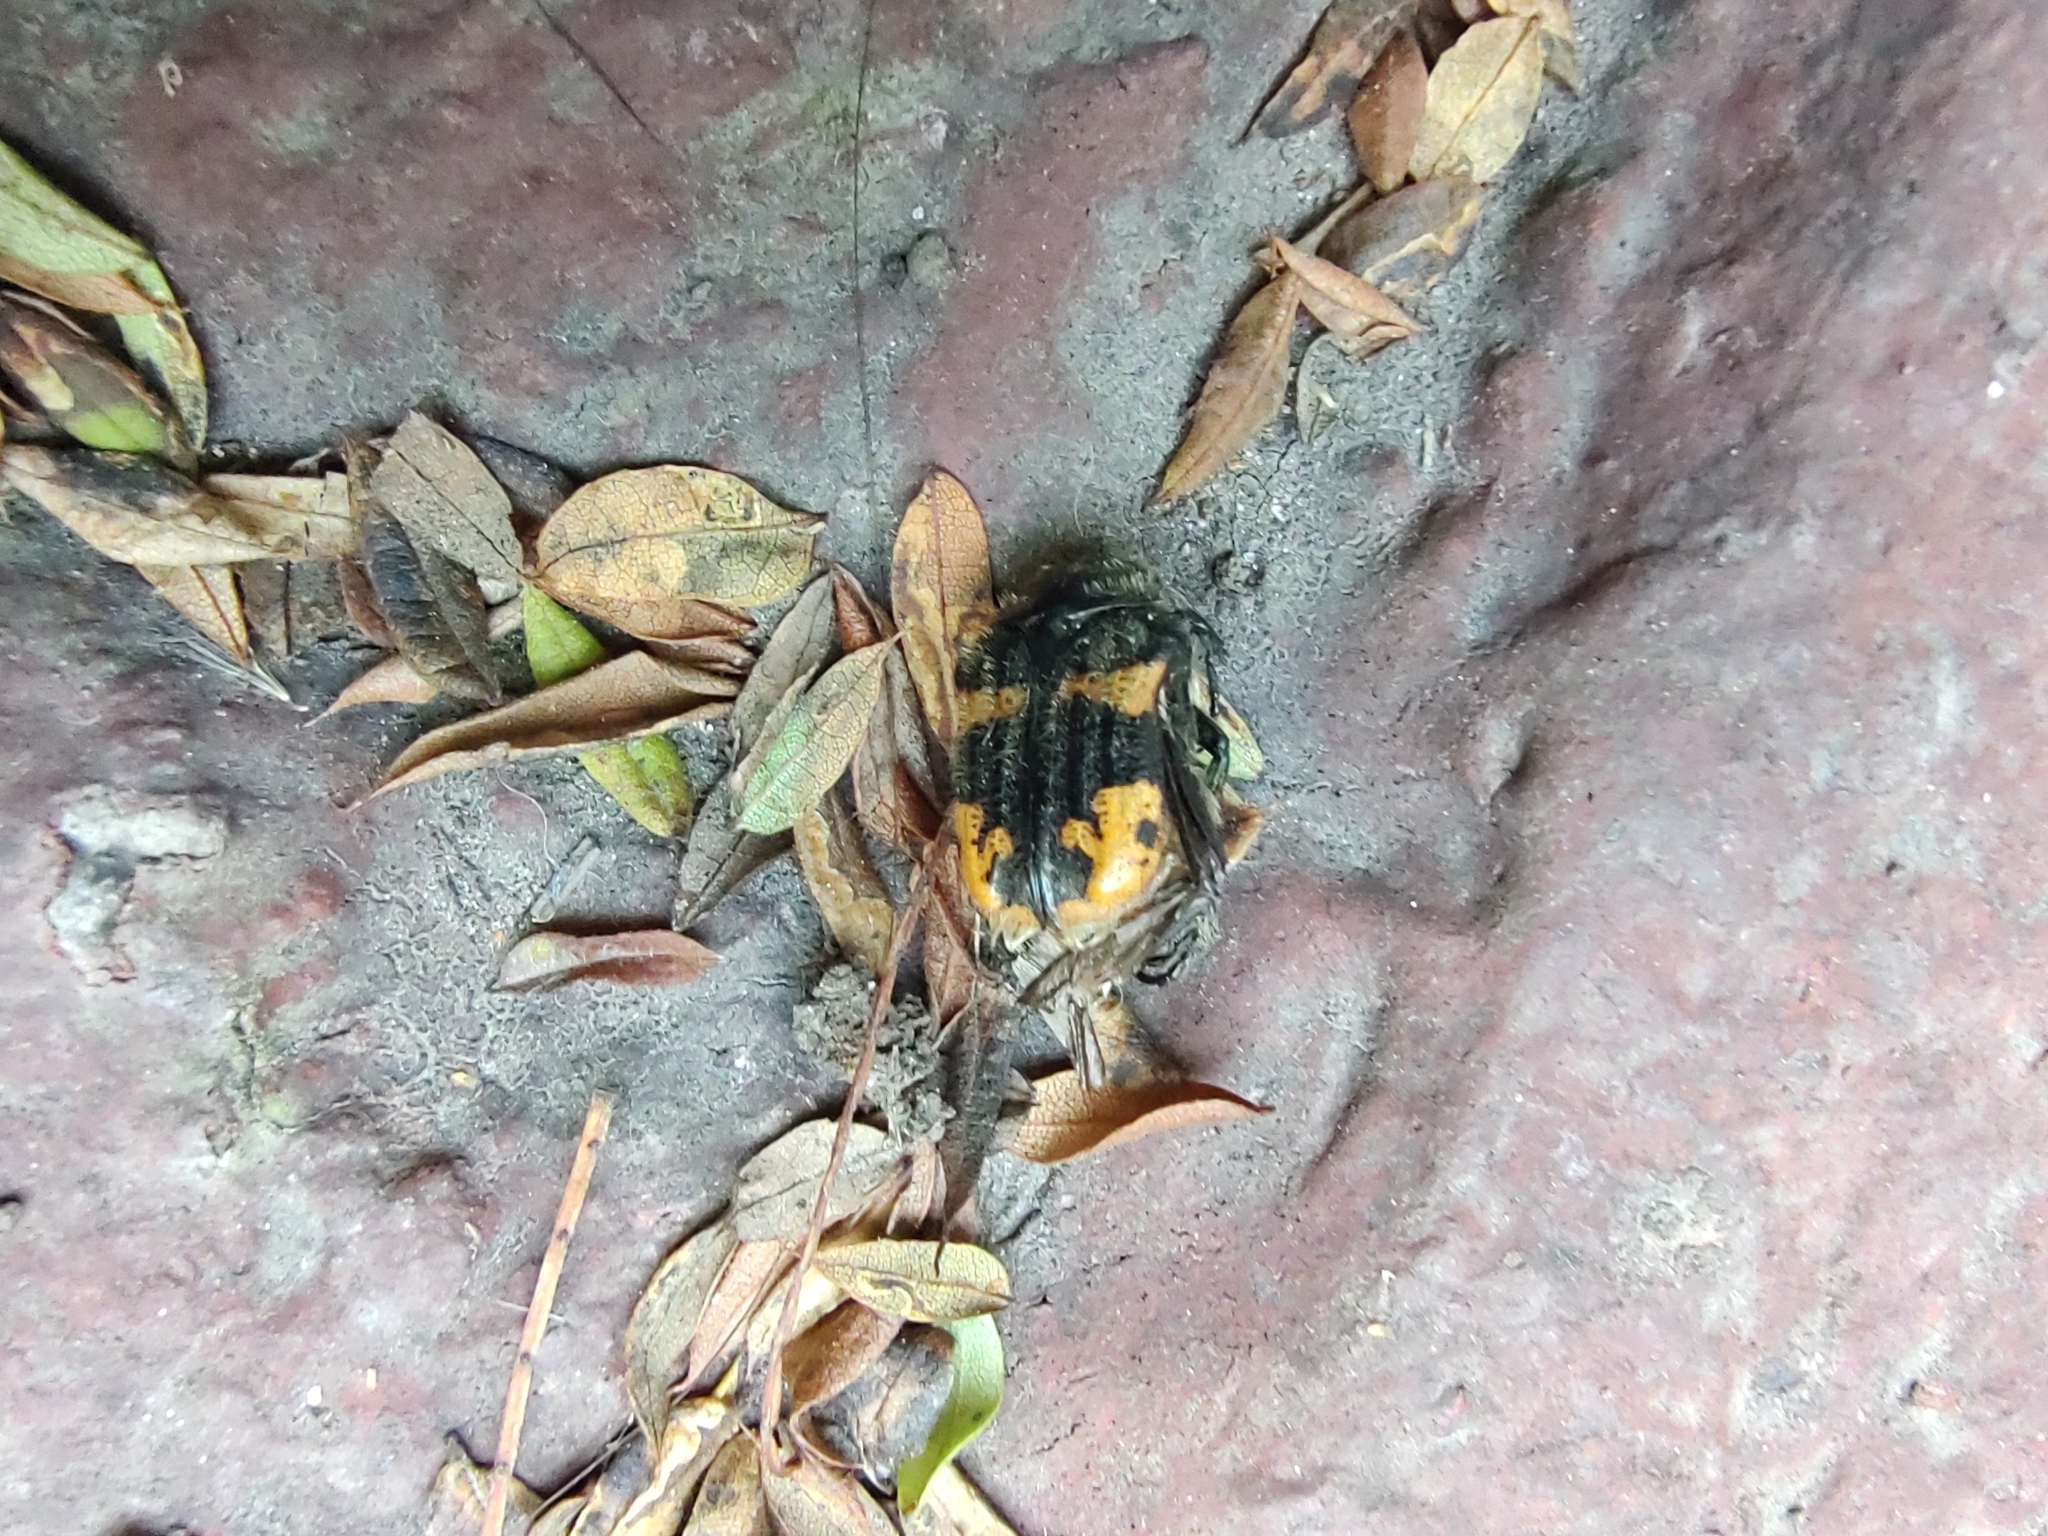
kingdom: Animalia
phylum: Arthropoda
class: Insecta
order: Coleoptera
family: Scarabaeidae
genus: Euphoria
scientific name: Euphoria basalis
